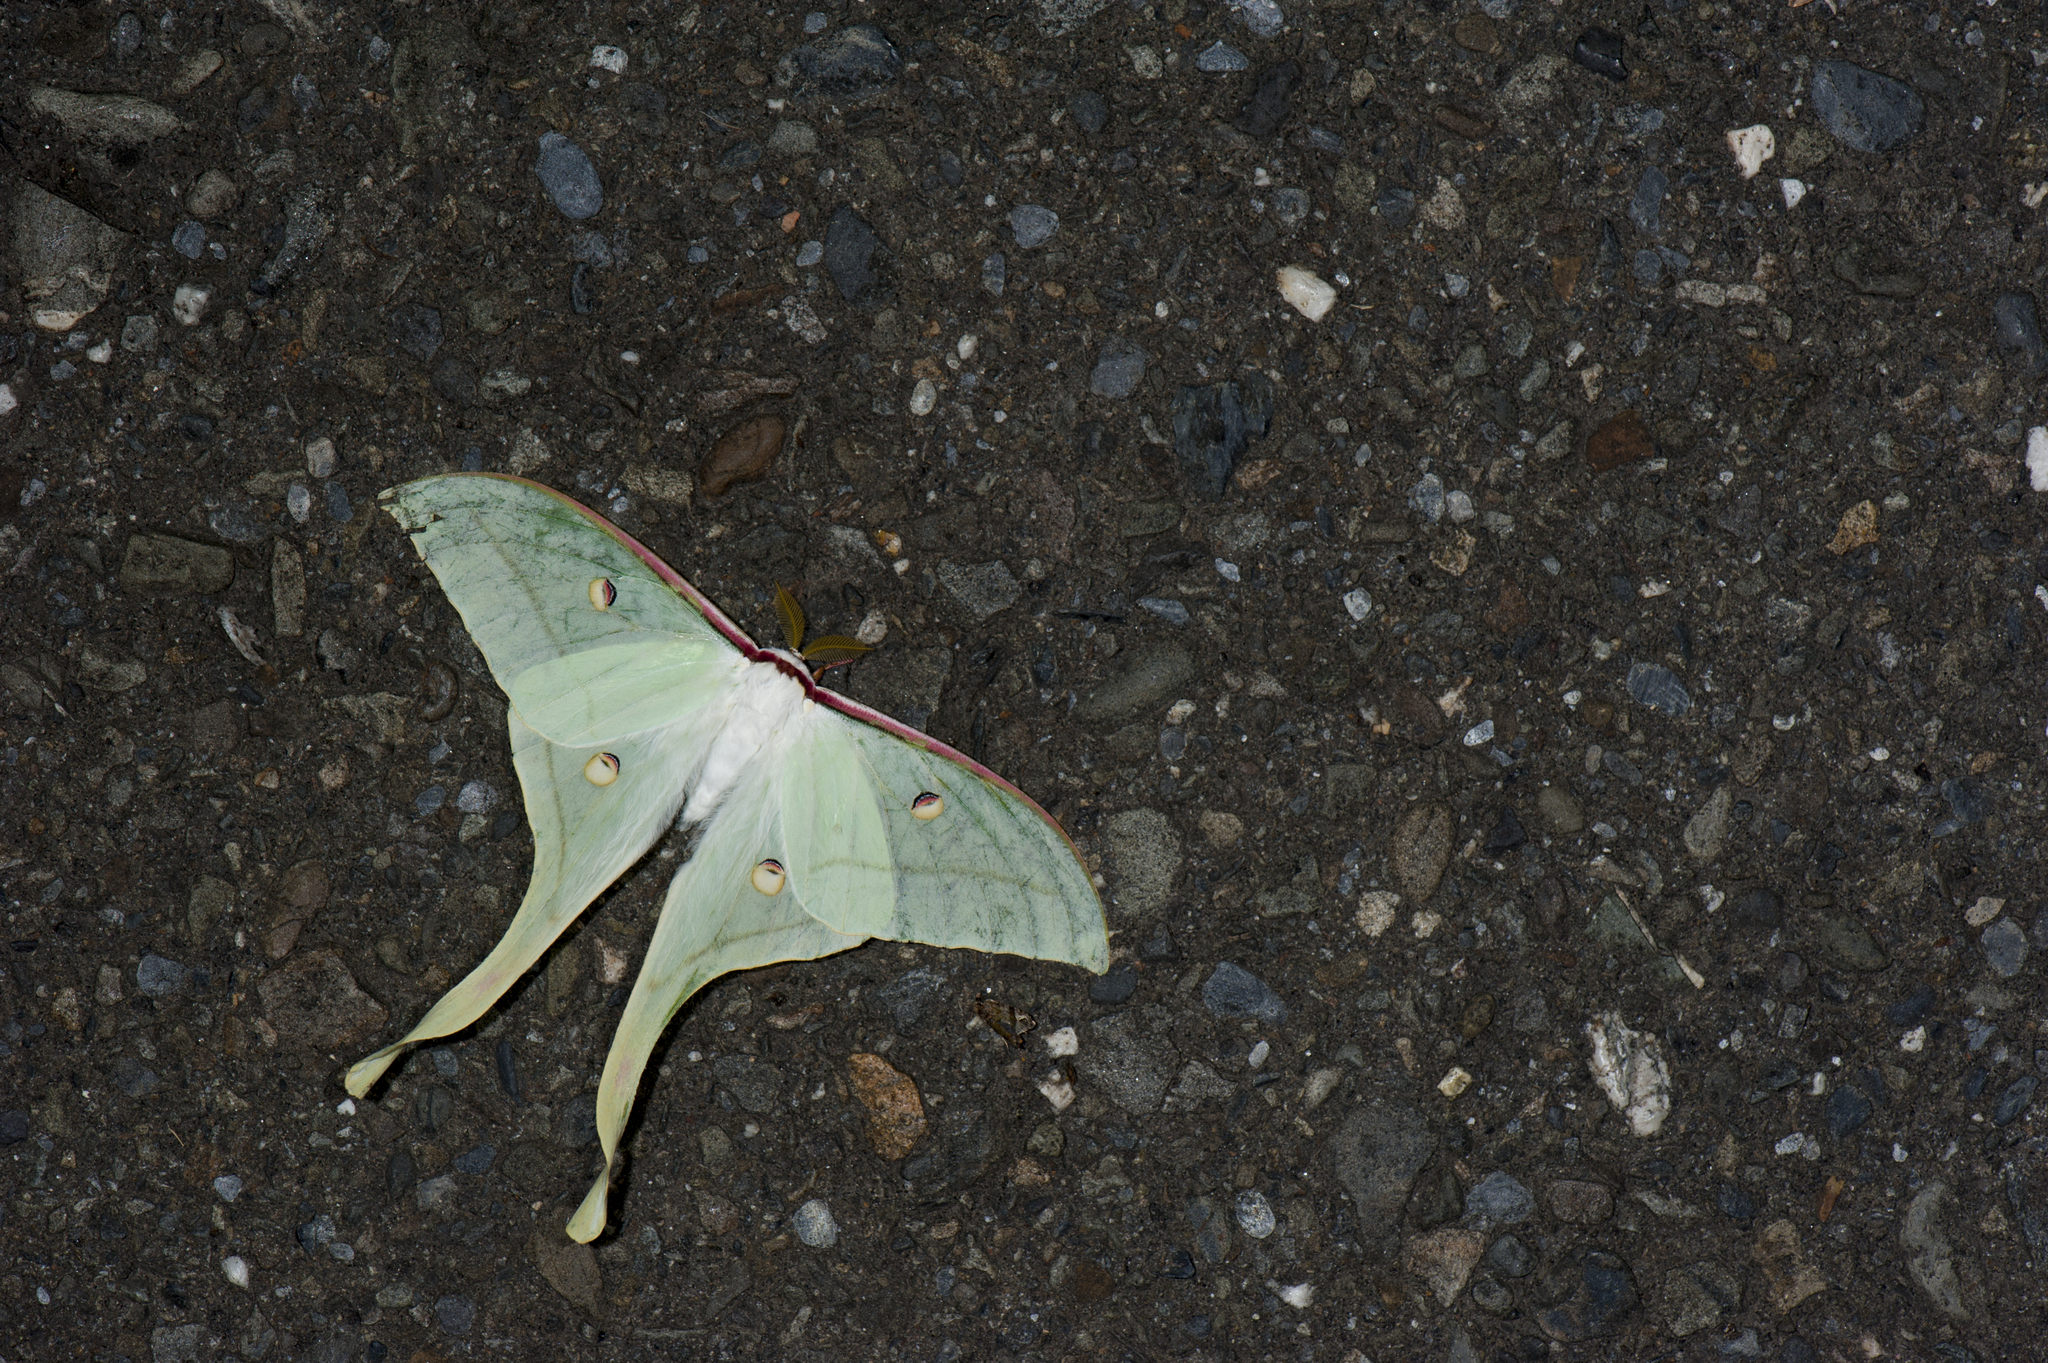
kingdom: Animalia
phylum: Arthropoda
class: Insecta
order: Lepidoptera
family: Saturniidae
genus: Actias
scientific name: Actias ningpoana
